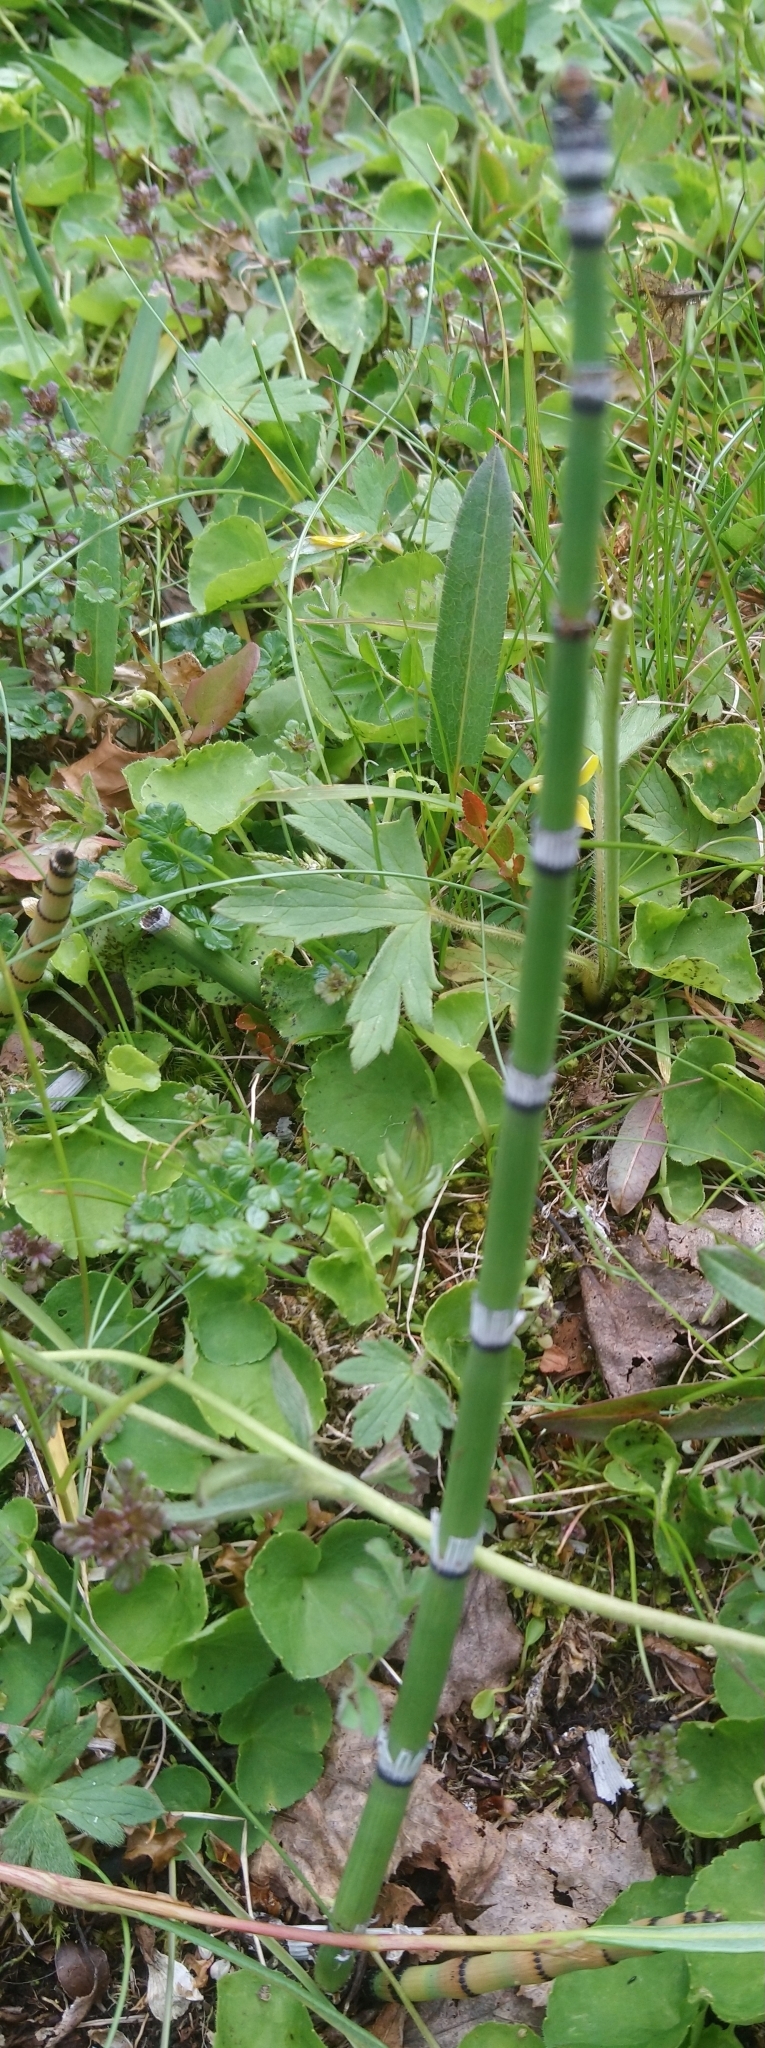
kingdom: Plantae
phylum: Tracheophyta
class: Polypodiopsida
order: Equisetales
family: Equisetaceae
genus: Equisetum
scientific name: Equisetum hyemale
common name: Rough horsetail
